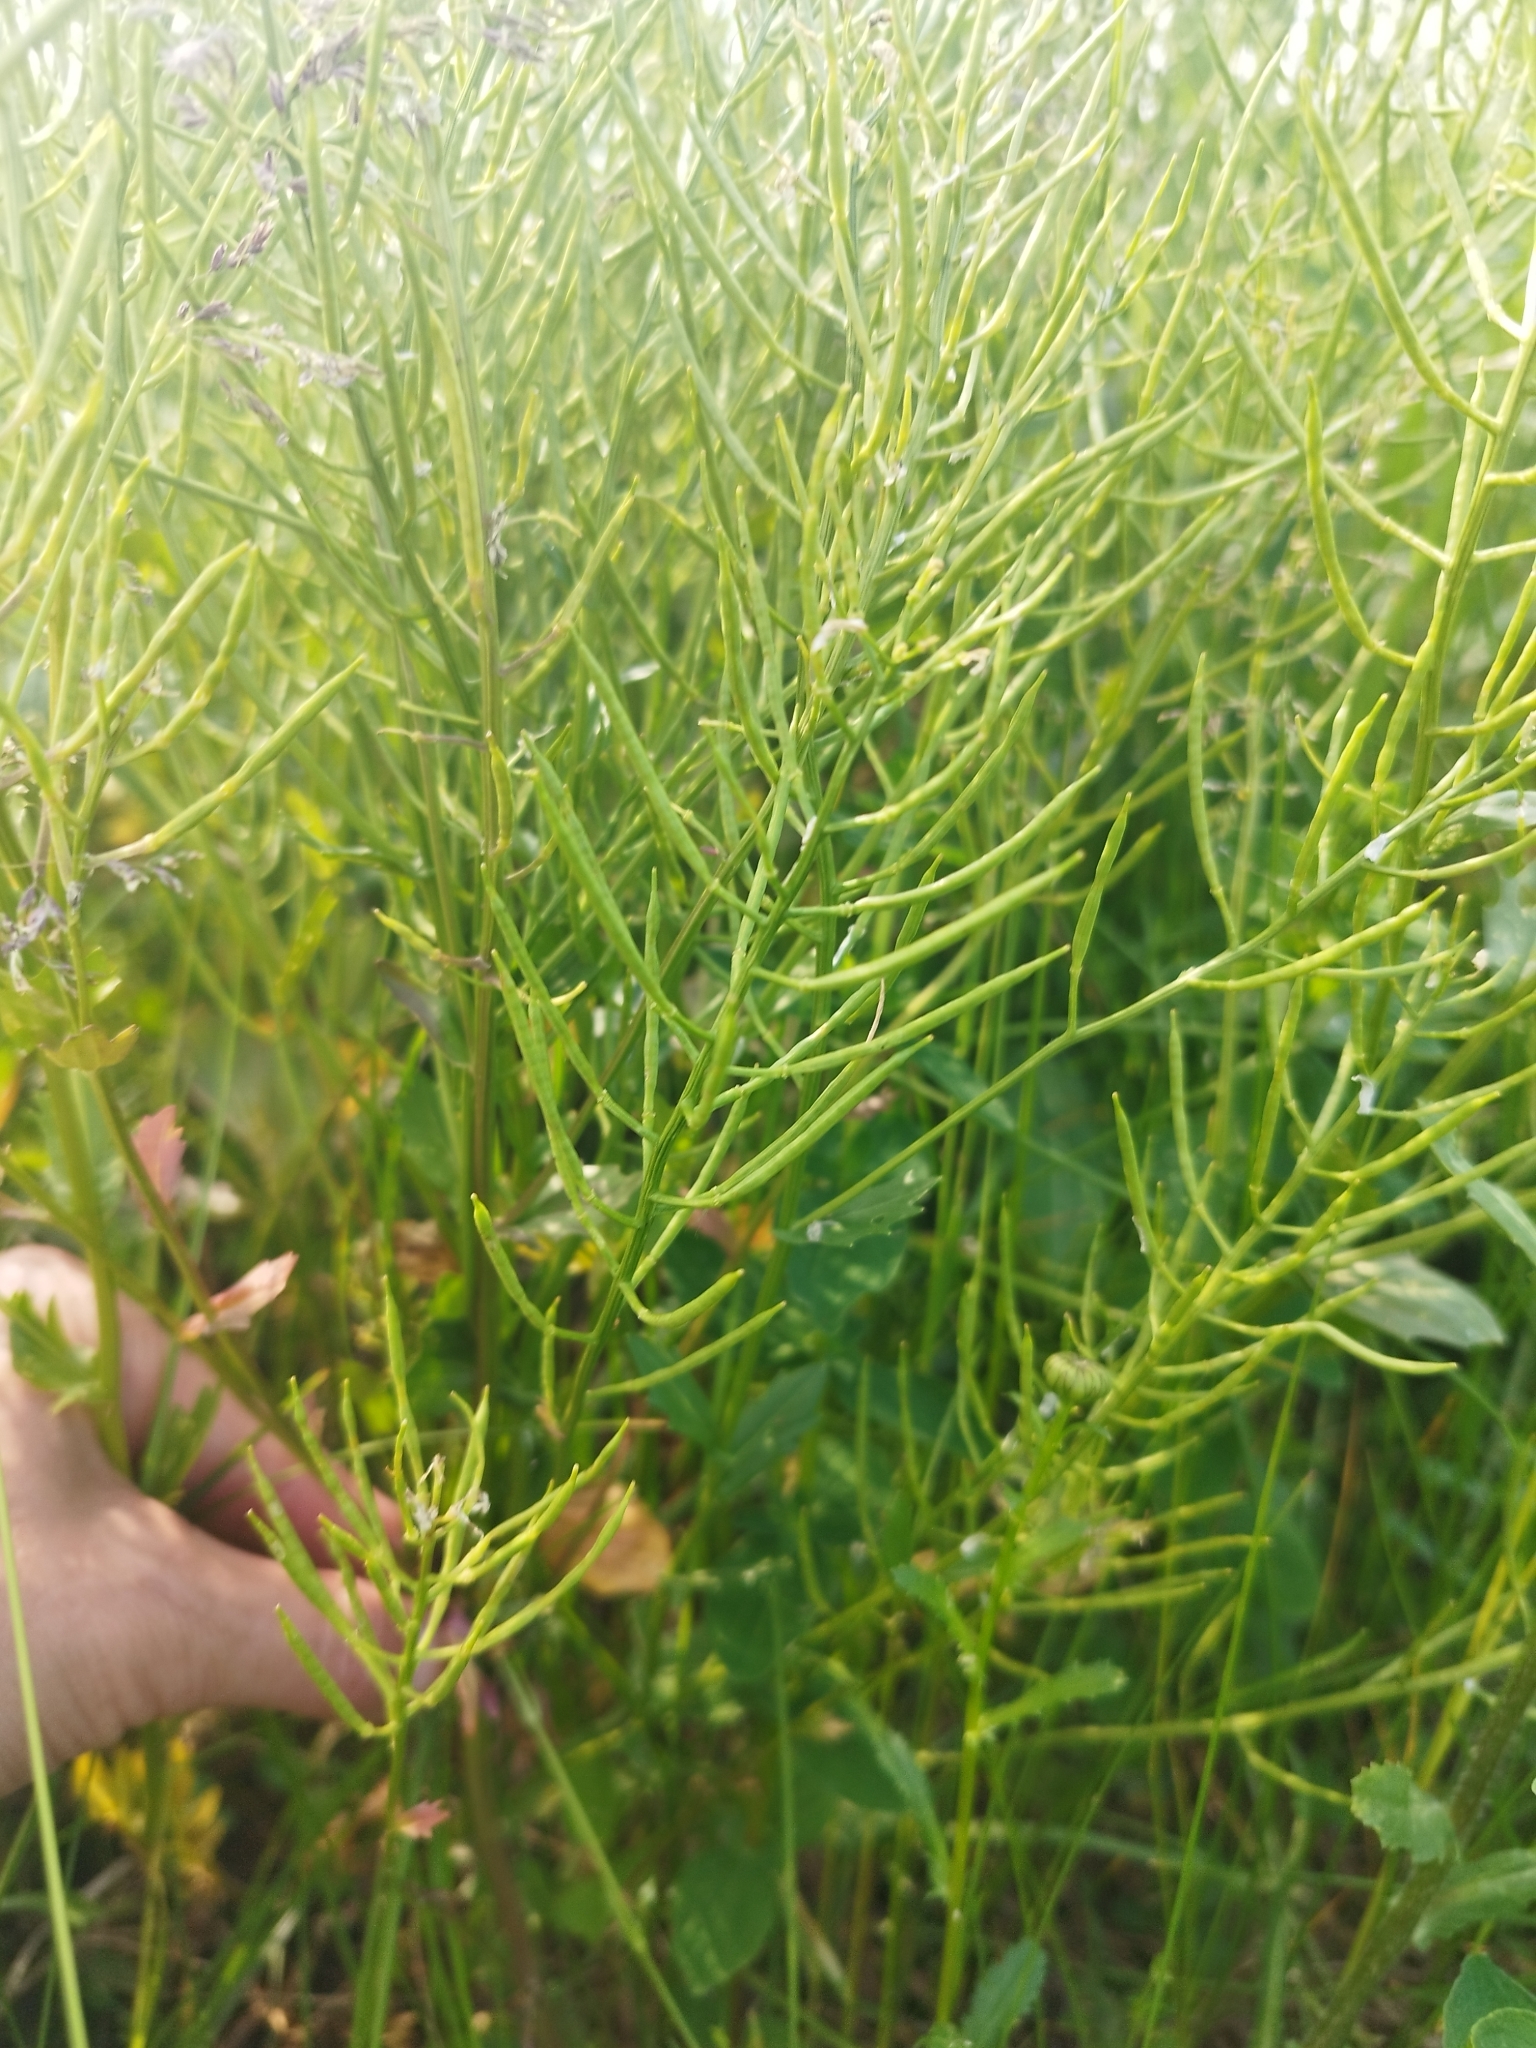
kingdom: Plantae
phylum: Tracheophyta
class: Magnoliopsida
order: Brassicales
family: Brassicaceae
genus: Barbarea
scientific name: Barbarea vulgaris
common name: Cressy-greens
